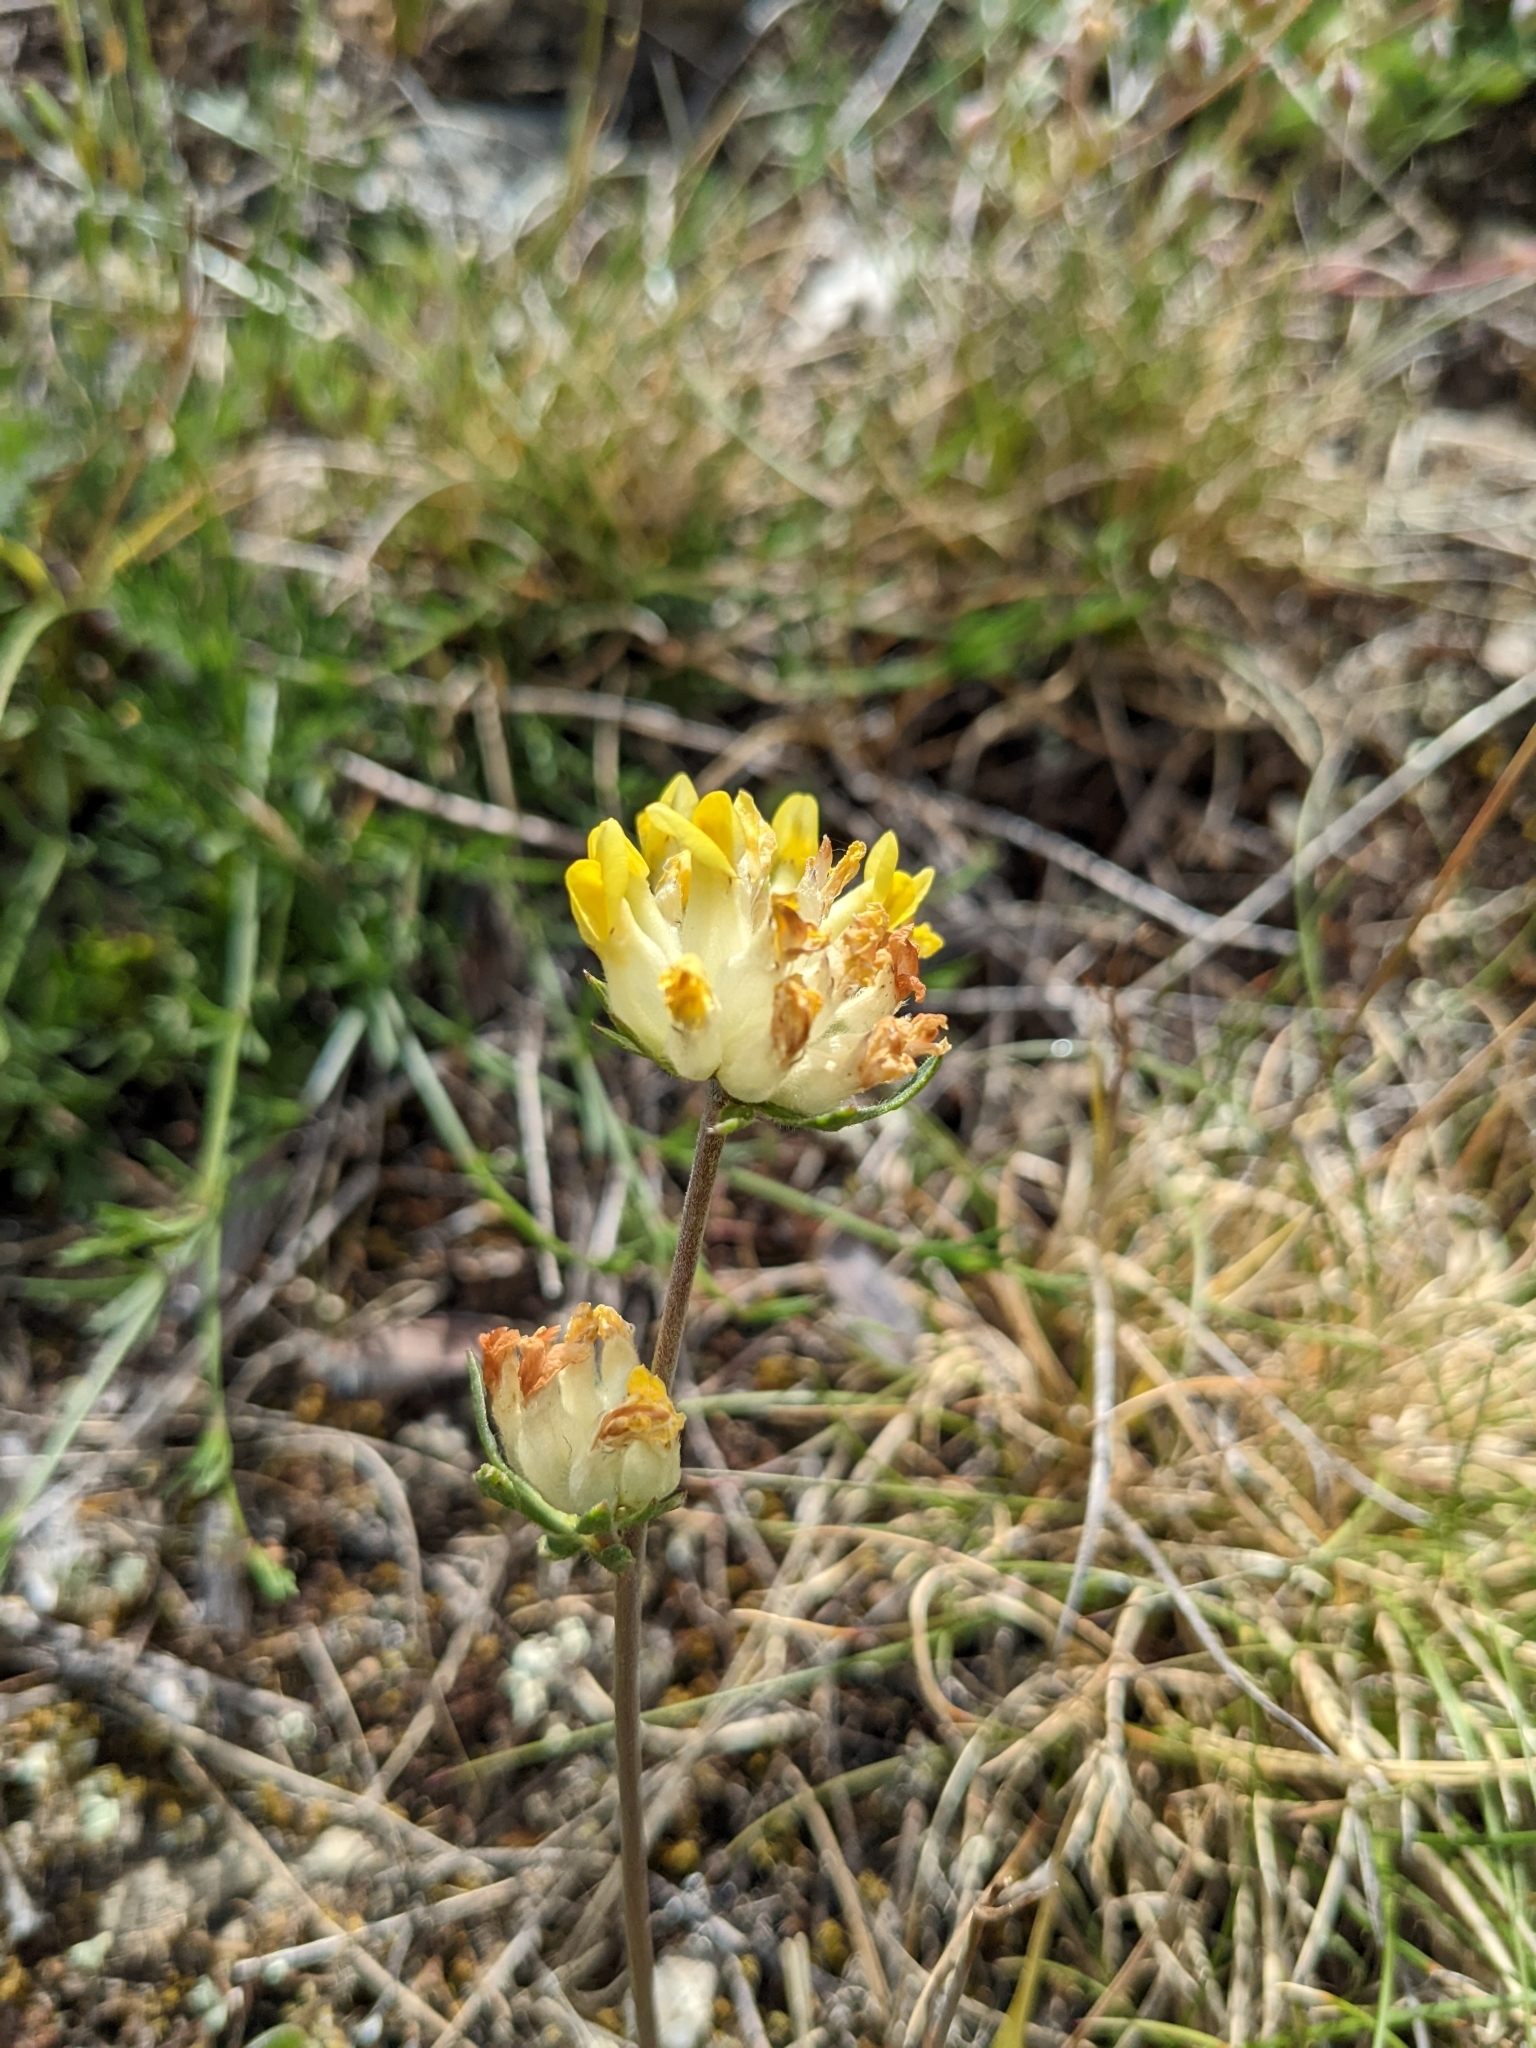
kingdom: Plantae
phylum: Tracheophyta
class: Magnoliopsida
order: Fabales
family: Fabaceae
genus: Anthyllis
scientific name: Anthyllis vulneraria
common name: Kidney vetch
